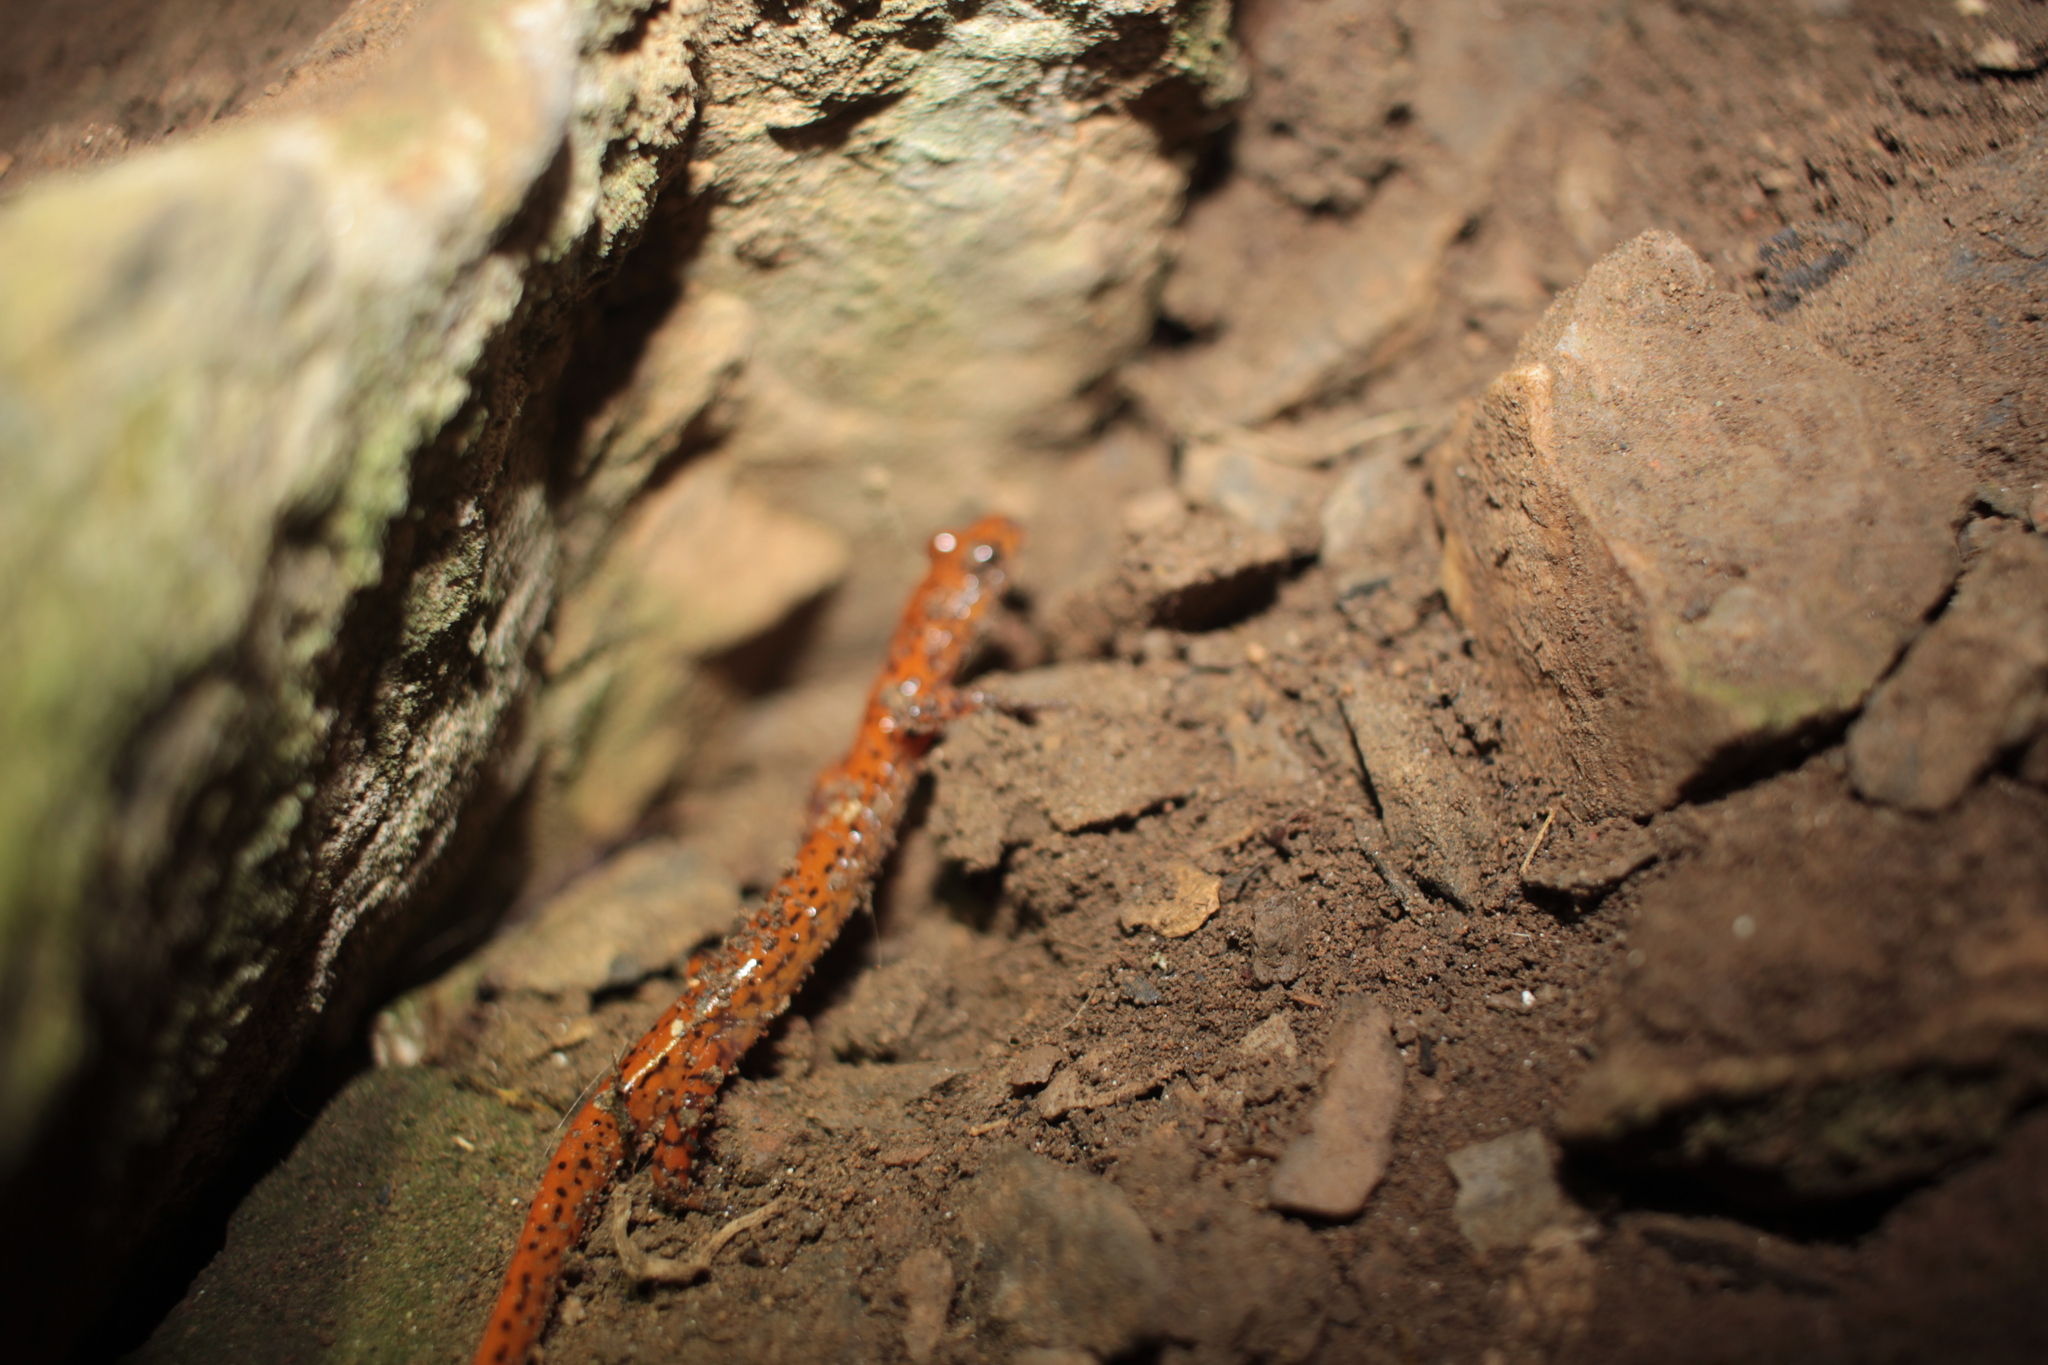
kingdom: Animalia
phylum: Chordata
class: Amphibia
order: Caudata
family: Plethodontidae
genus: Eurycea
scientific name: Eurycea lucifuga
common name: Cave salamander
